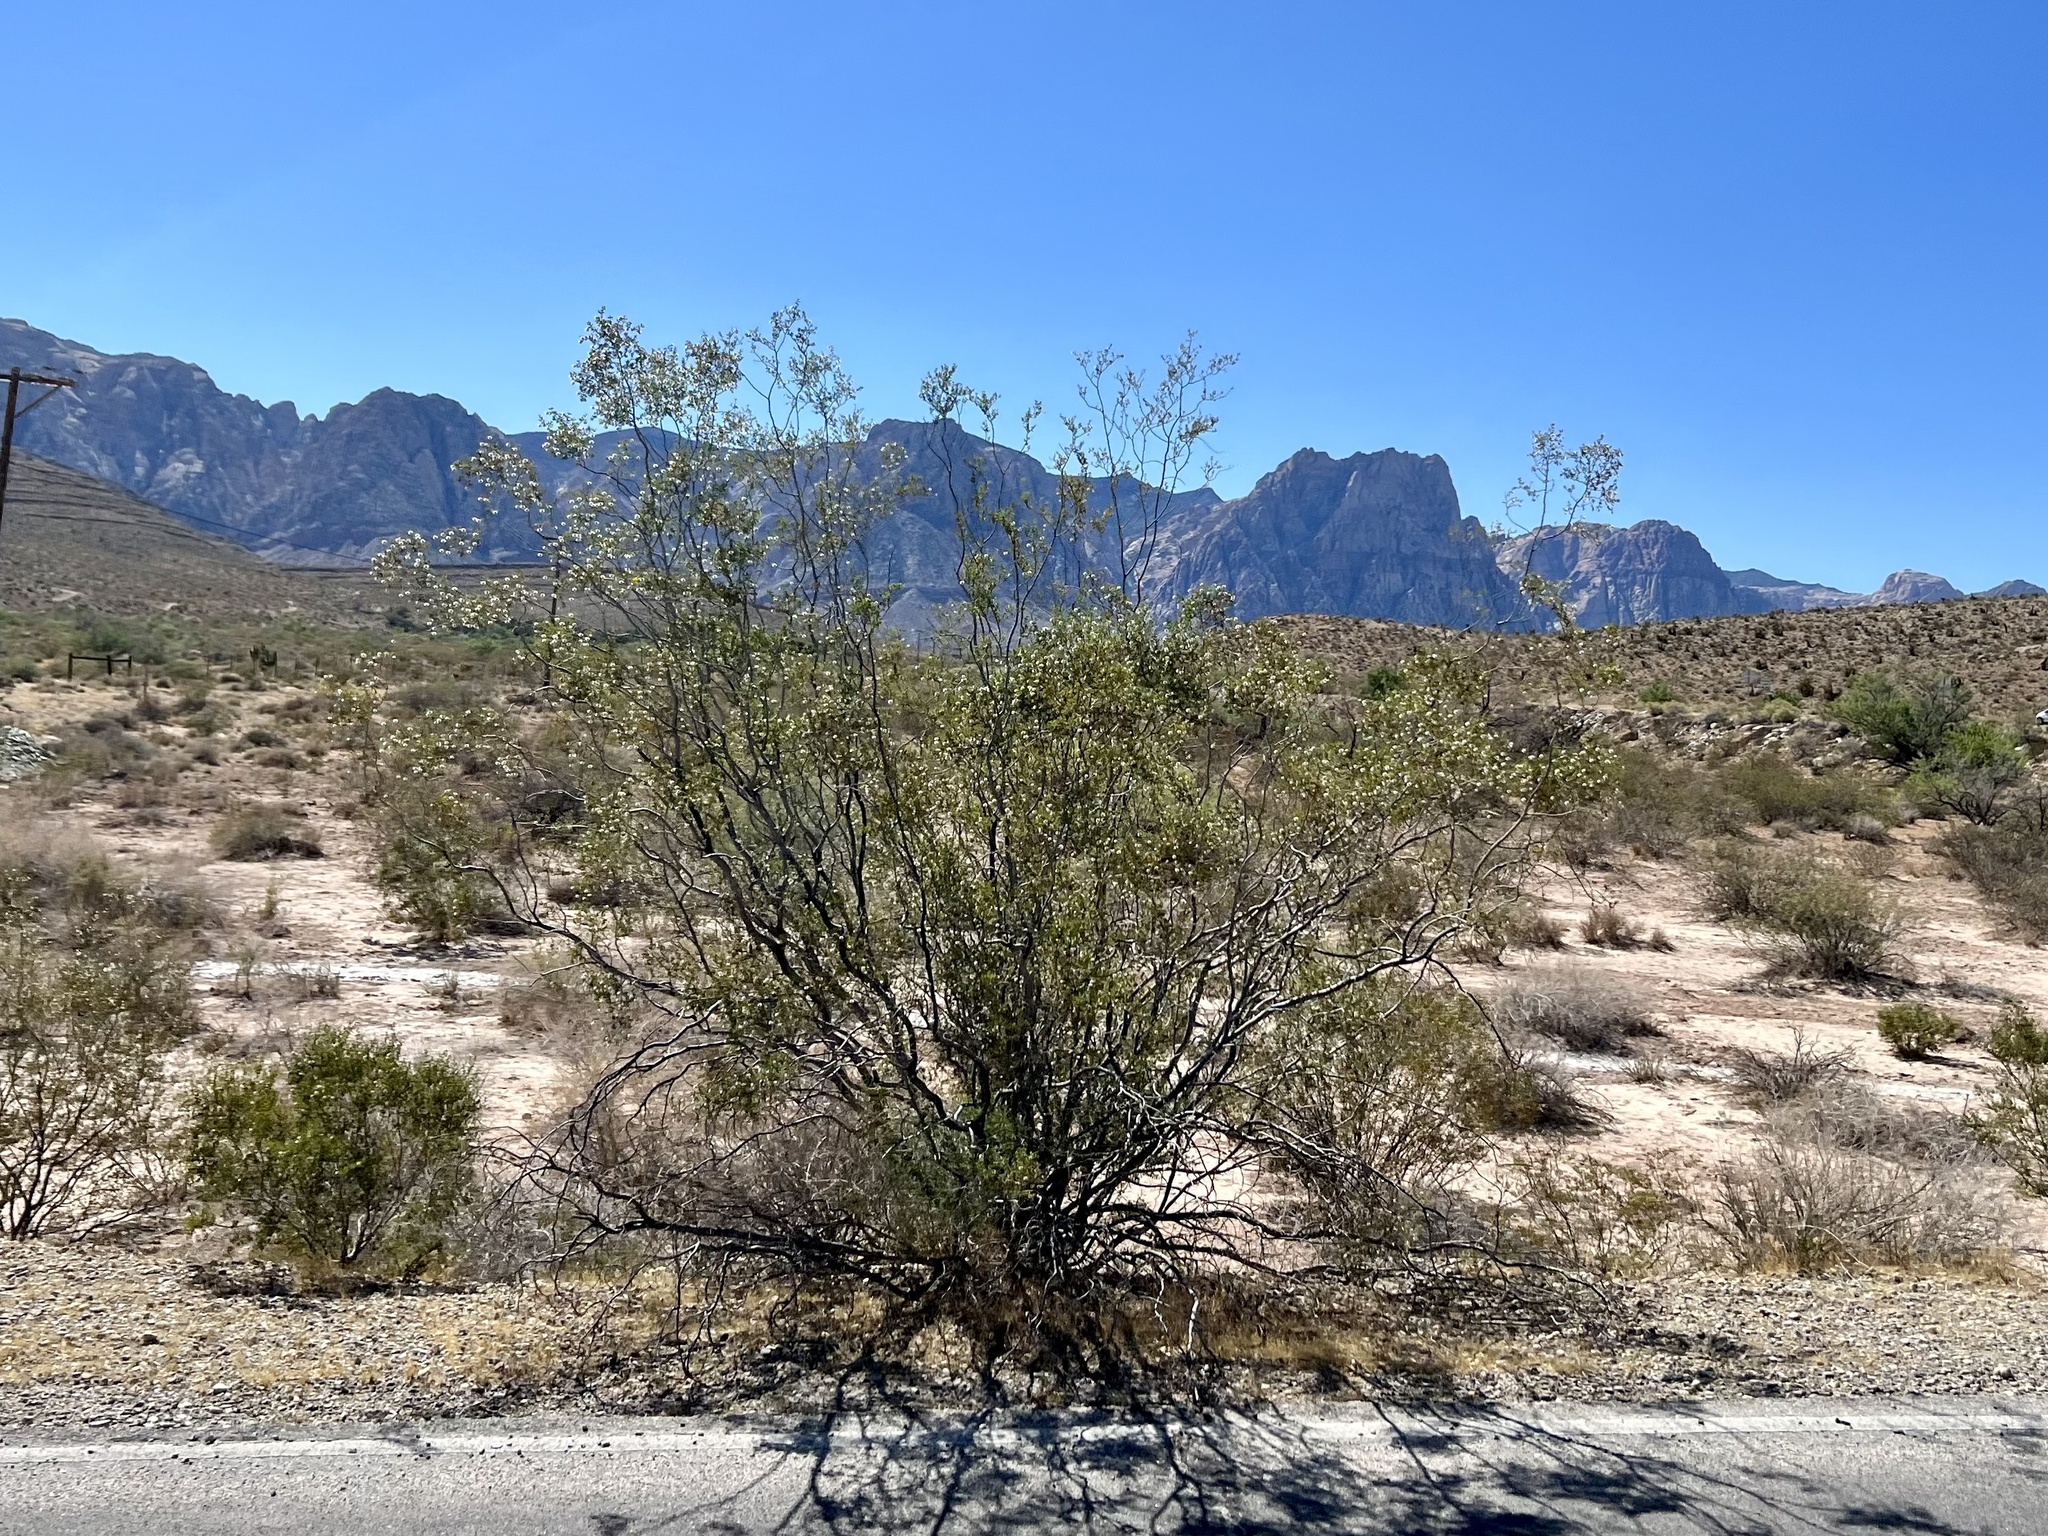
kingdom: Plantae
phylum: Tracheophyta
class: Magnoliopsida
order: Zygophyllales
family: Zygophyllaceae
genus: Larrea
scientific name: Larrea tridentata
